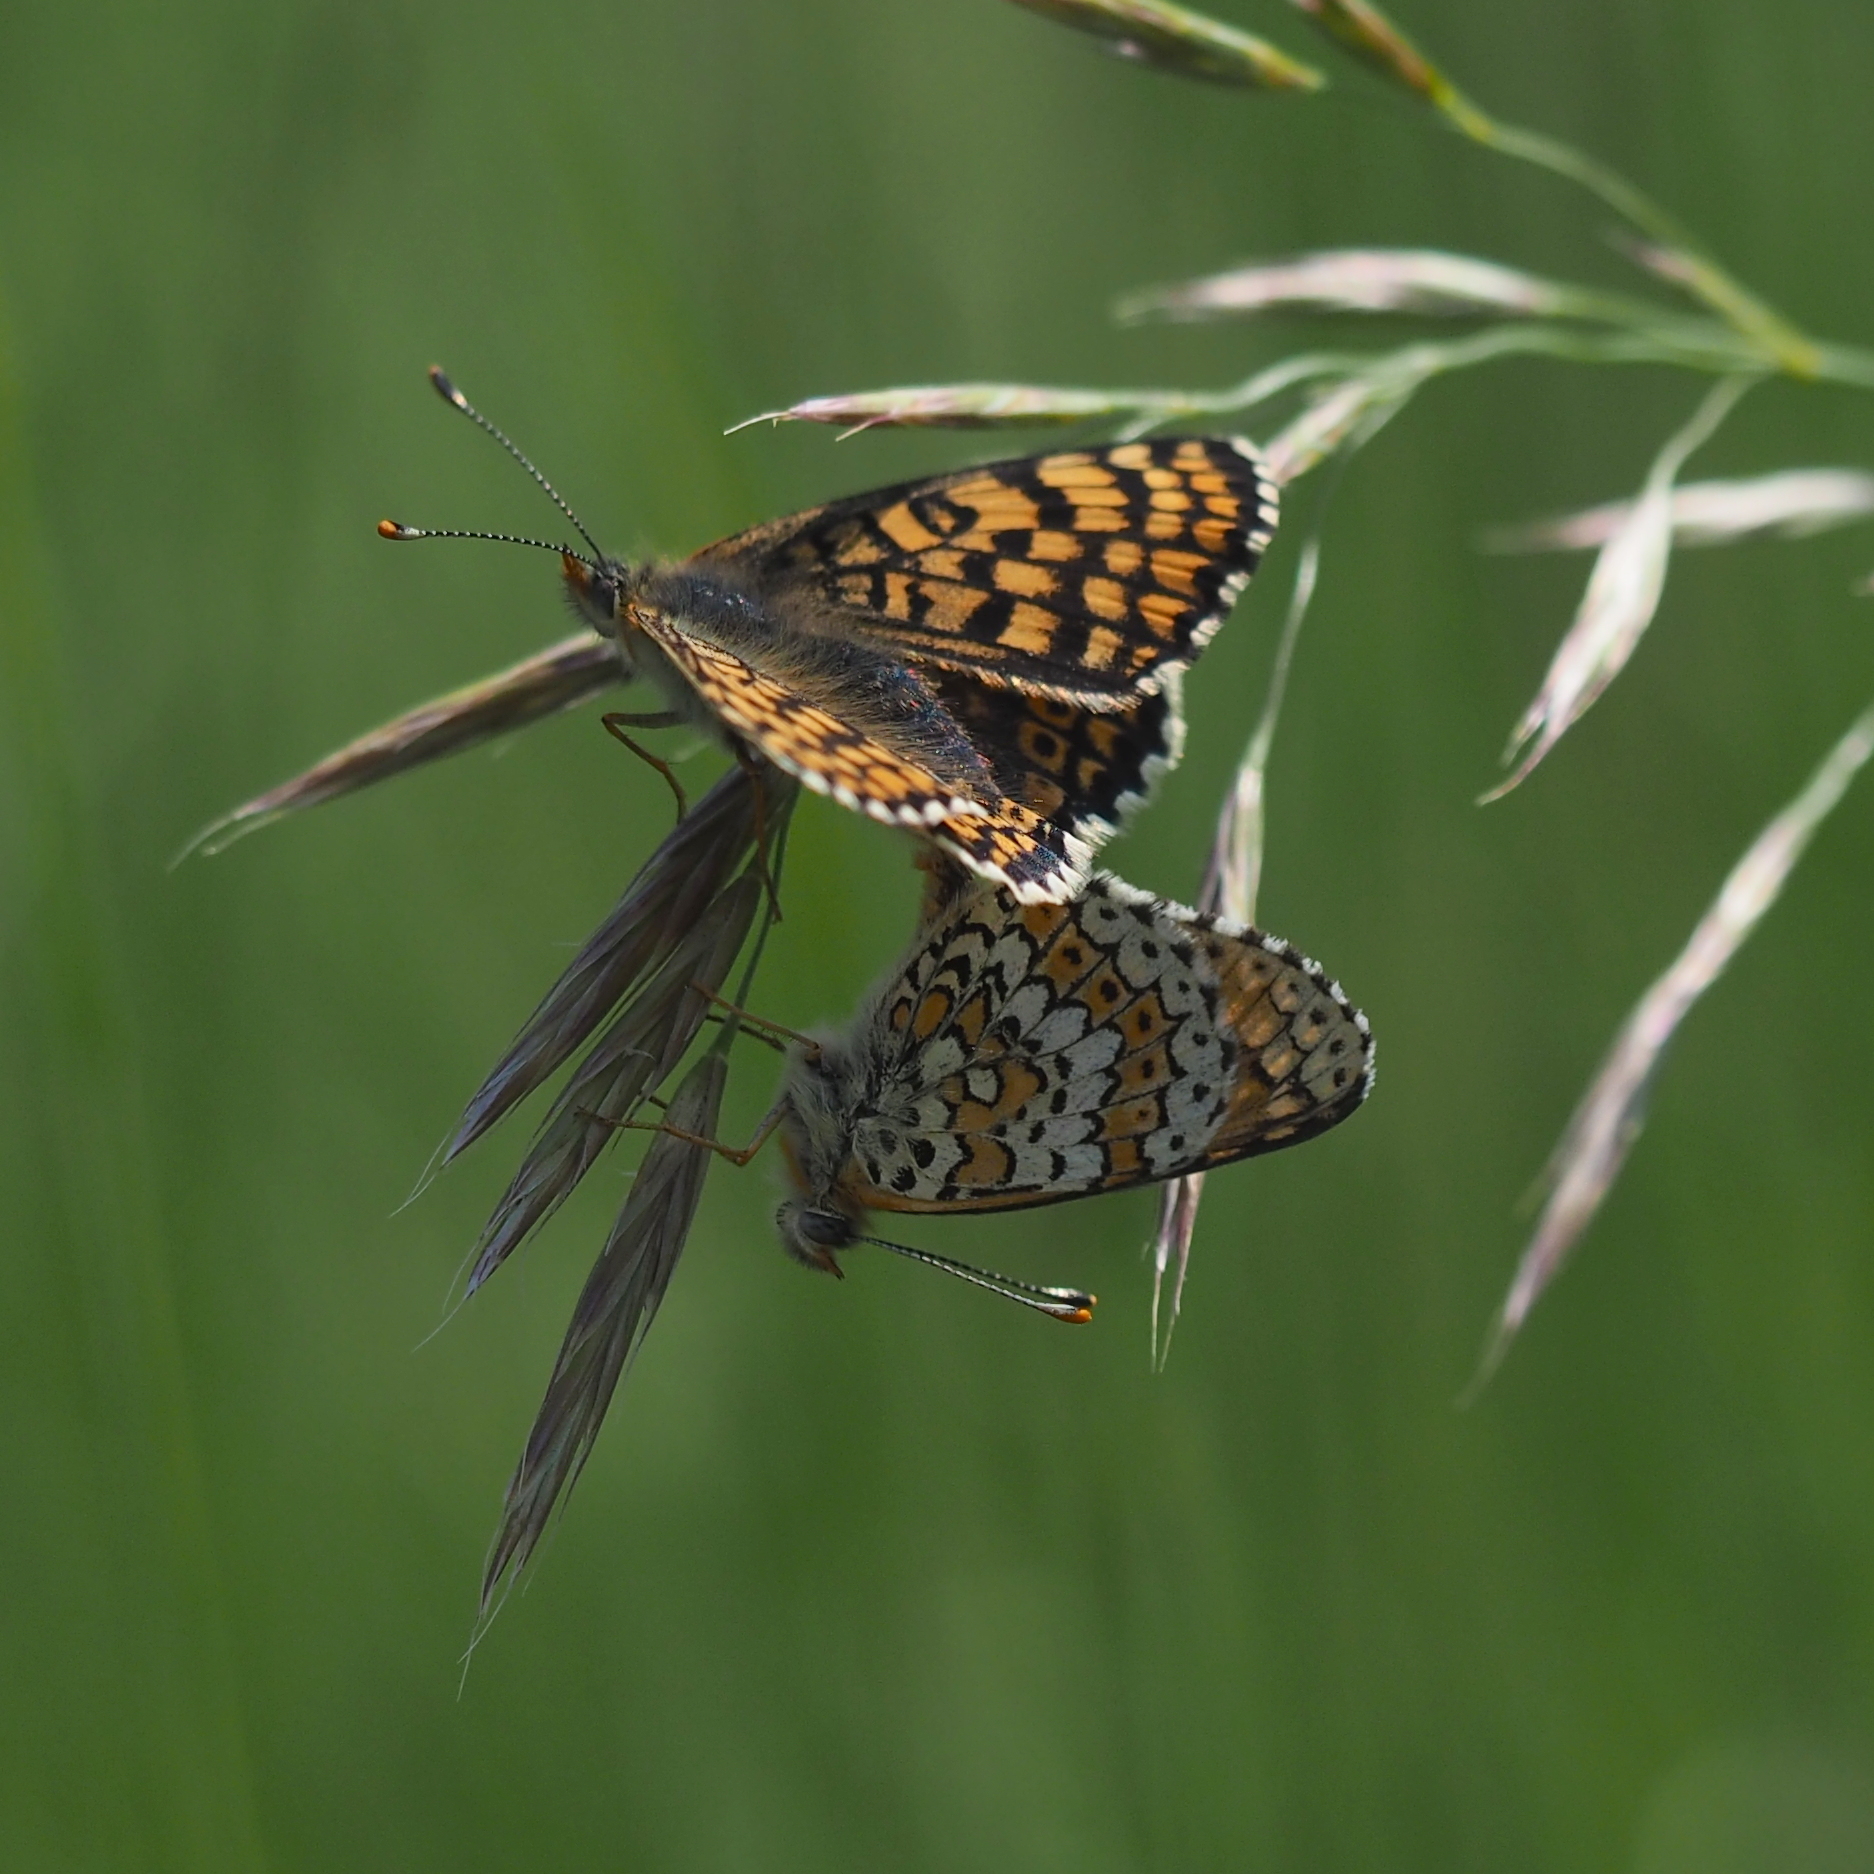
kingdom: Animalia
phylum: Arthropoda
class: Insecta
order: Lepidoptera
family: Nymphalidae
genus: Melitaea
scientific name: Melitaea cinxia
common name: Glanville fritillary
